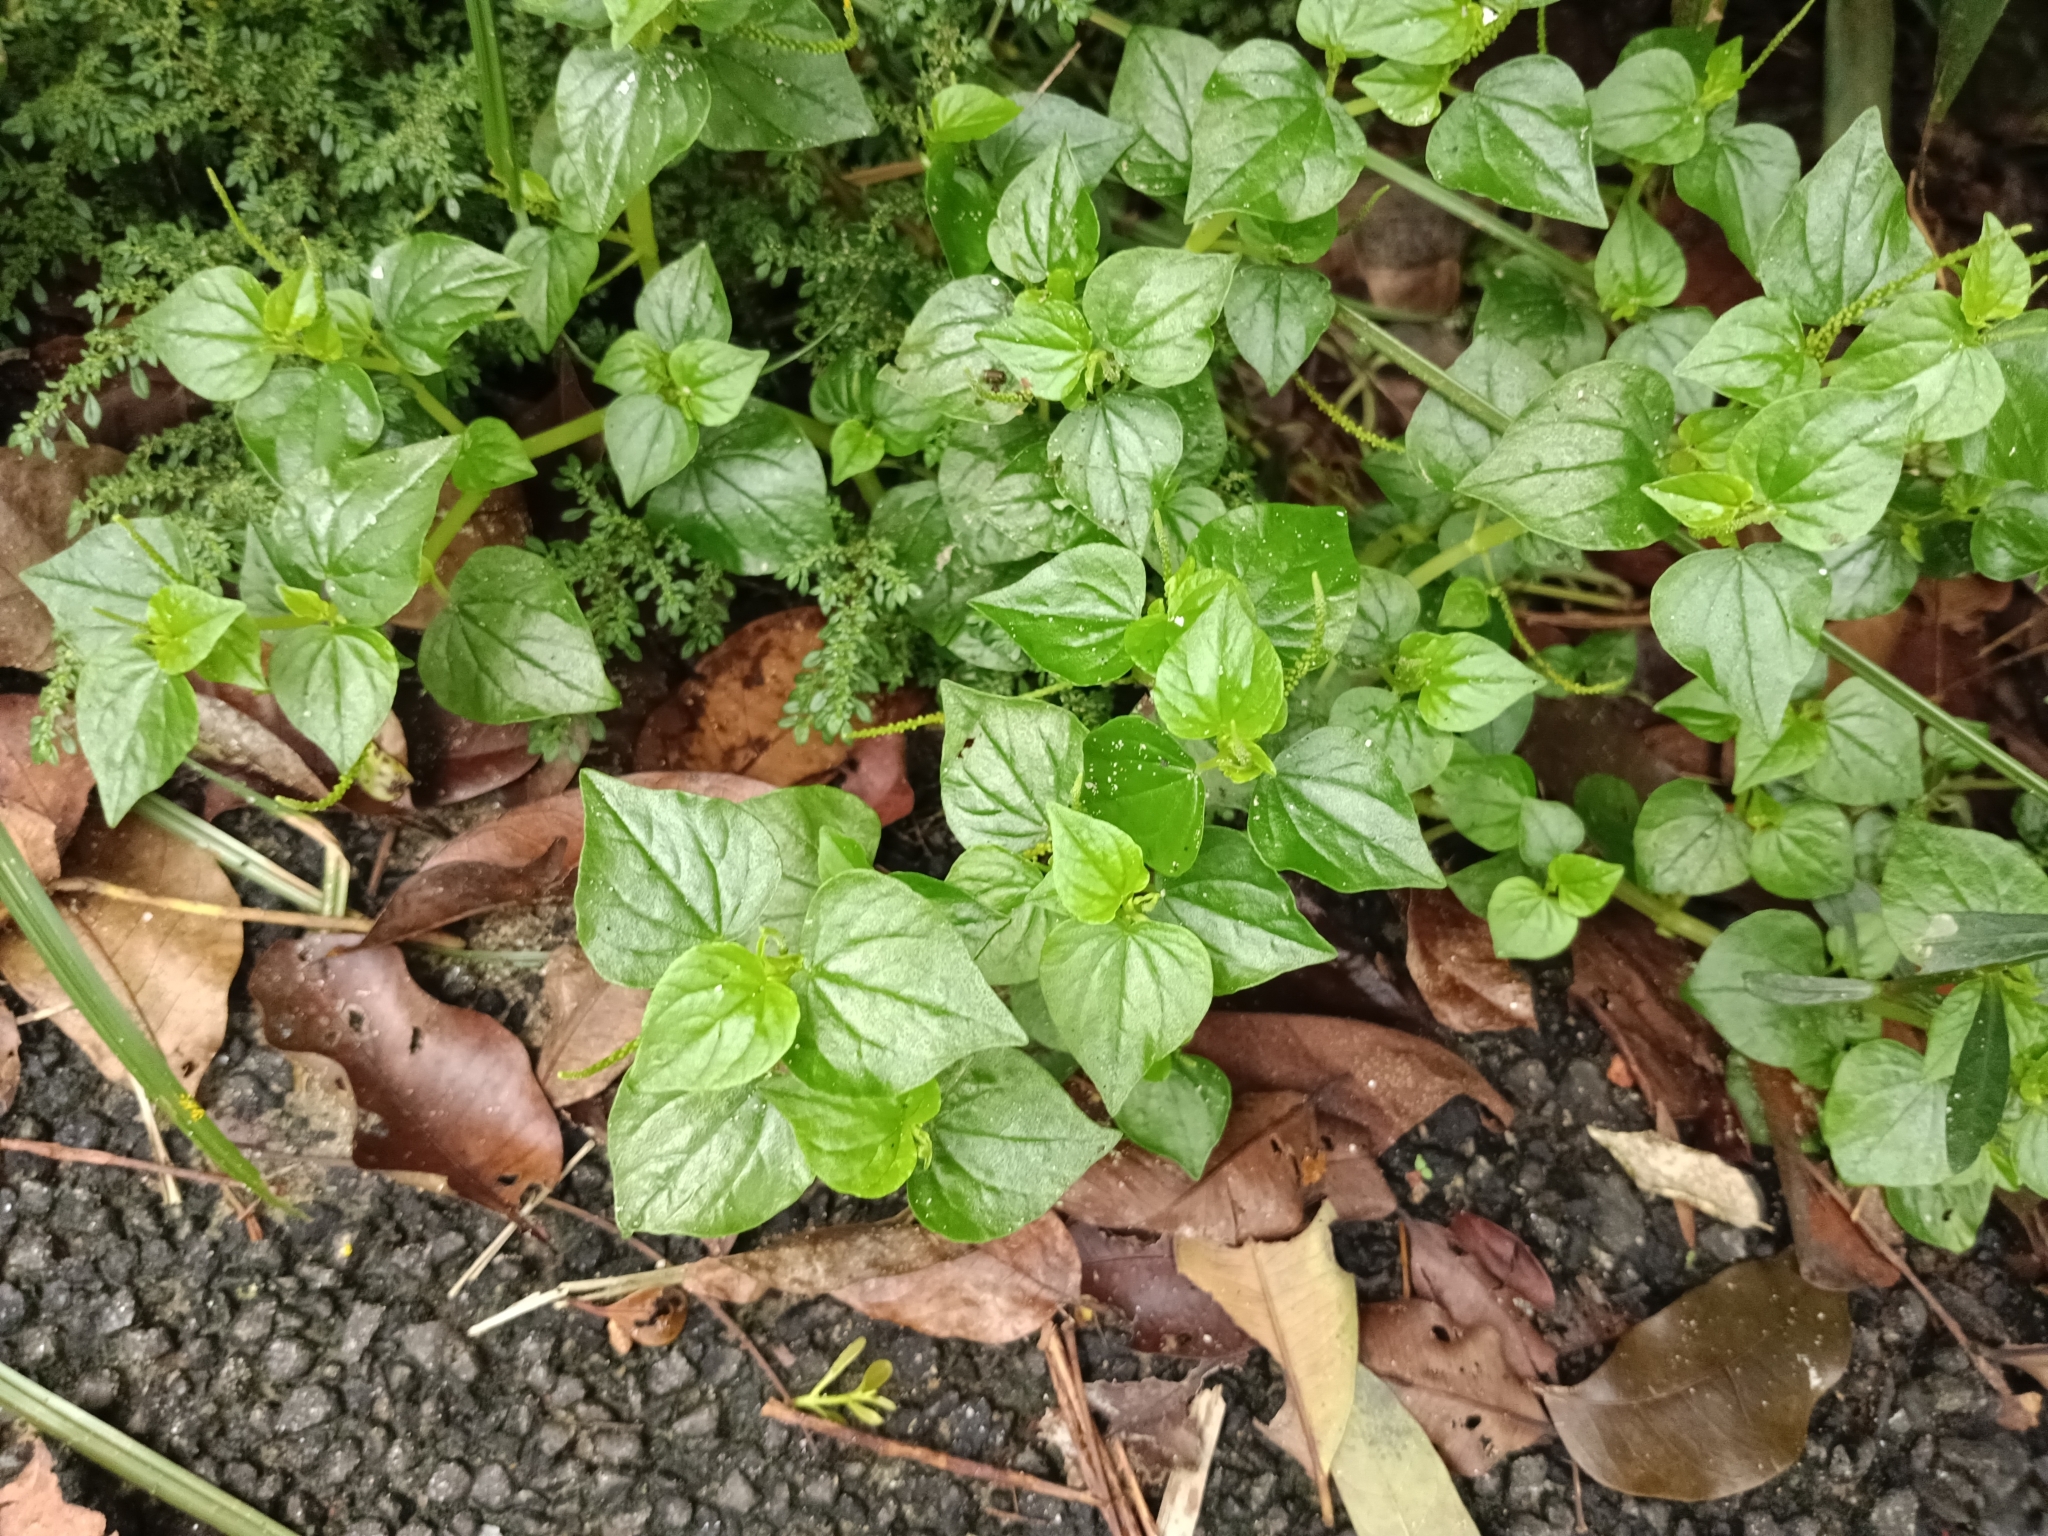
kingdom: Plantae
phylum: Tracheophyta
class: Magnoliopsida
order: Piperales
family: Piperaceae
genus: Peperomia
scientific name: Peperomia pellucida
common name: Man to man
